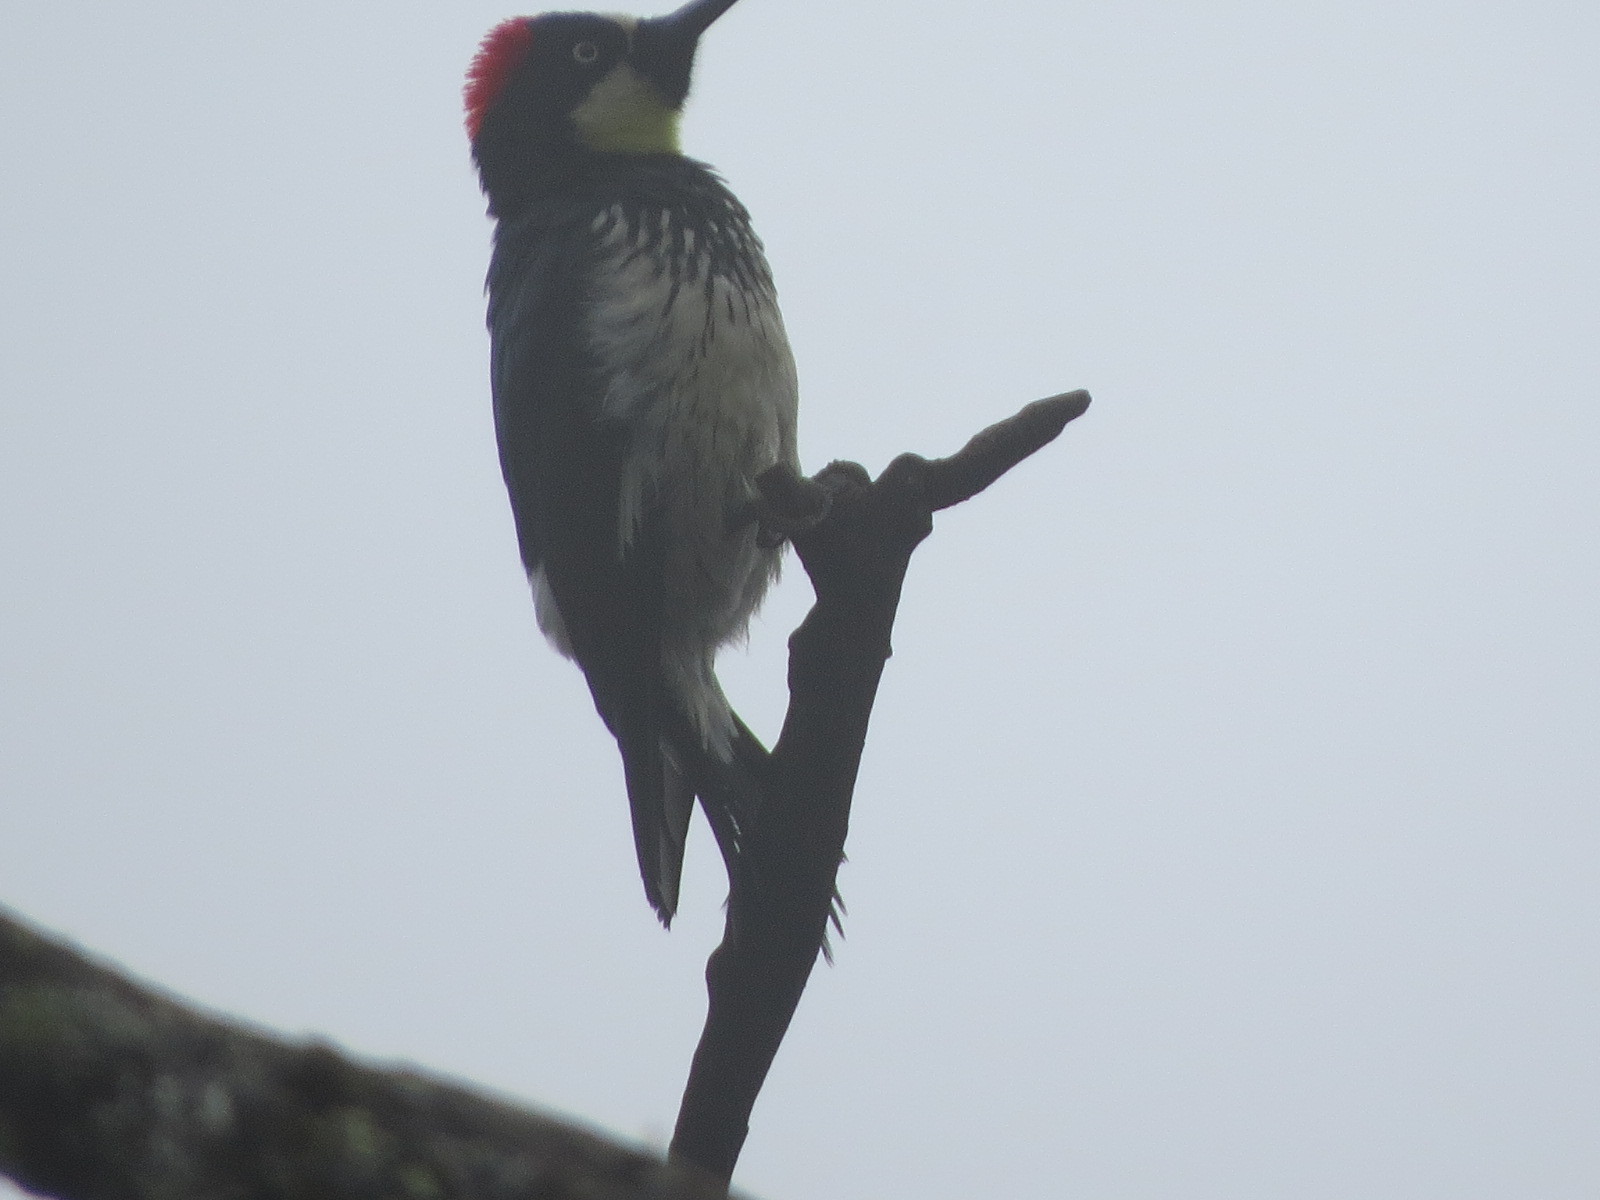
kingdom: Animalia
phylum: Chordata
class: Aves
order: Piciformes
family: Picidae
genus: Melanerpes
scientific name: Melanerpes formicivorus
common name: Acorn woodpecker
